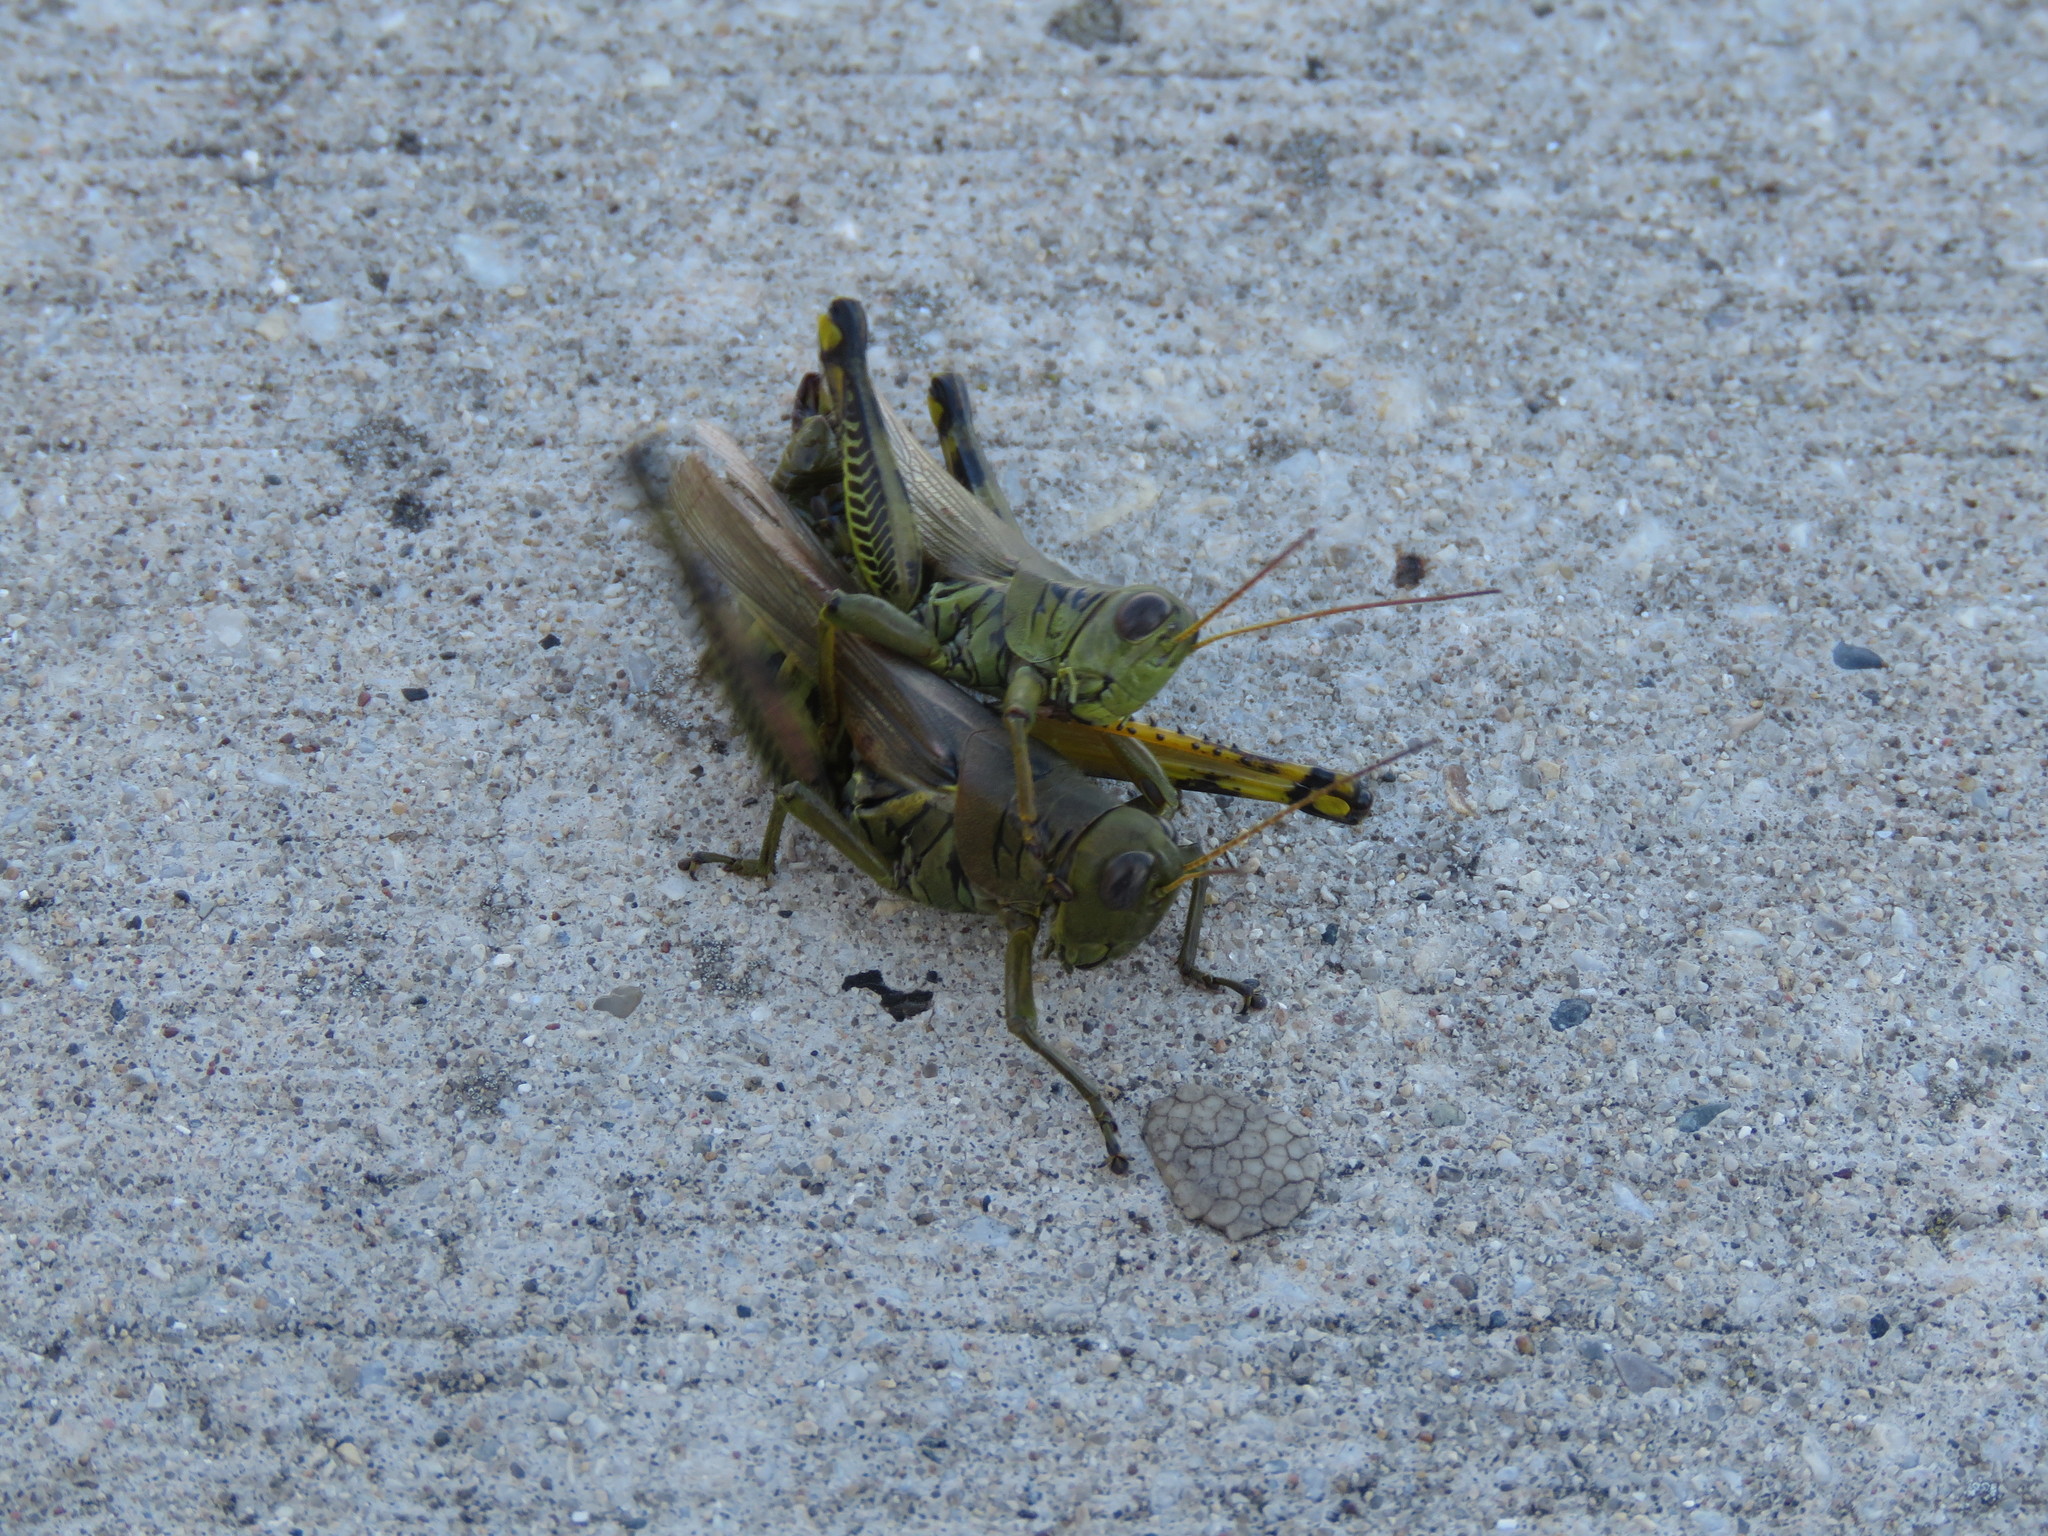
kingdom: Animalia
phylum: Arthropoda
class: Insecta
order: Orthoptera
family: Acrididae
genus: Melanoplus
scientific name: Melanoplus differentialis
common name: Differential grasshopper
